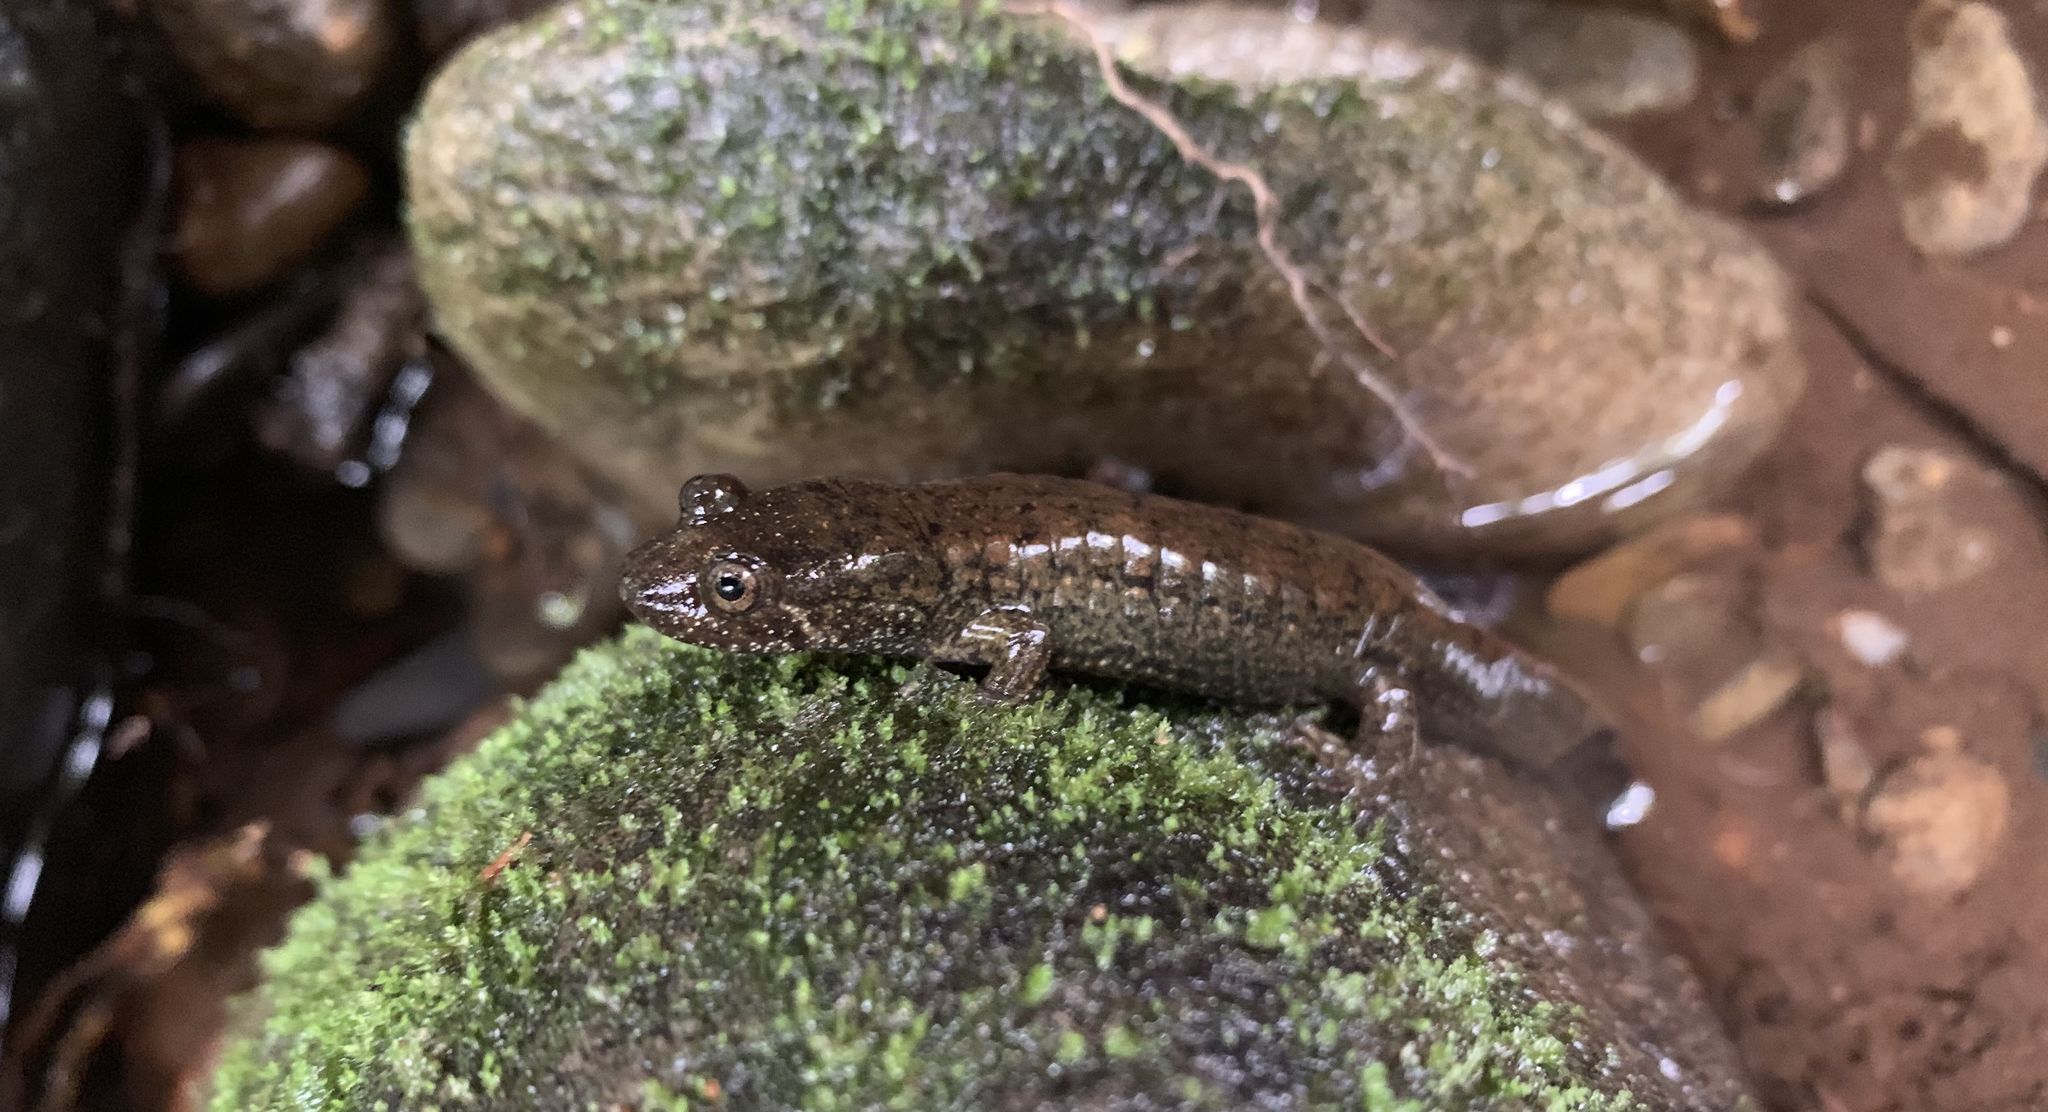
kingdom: Animalia
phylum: Chordata
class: Amphibia
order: Caudata
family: Plethodontidae
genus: Desmognathus
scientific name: Desmognathus
